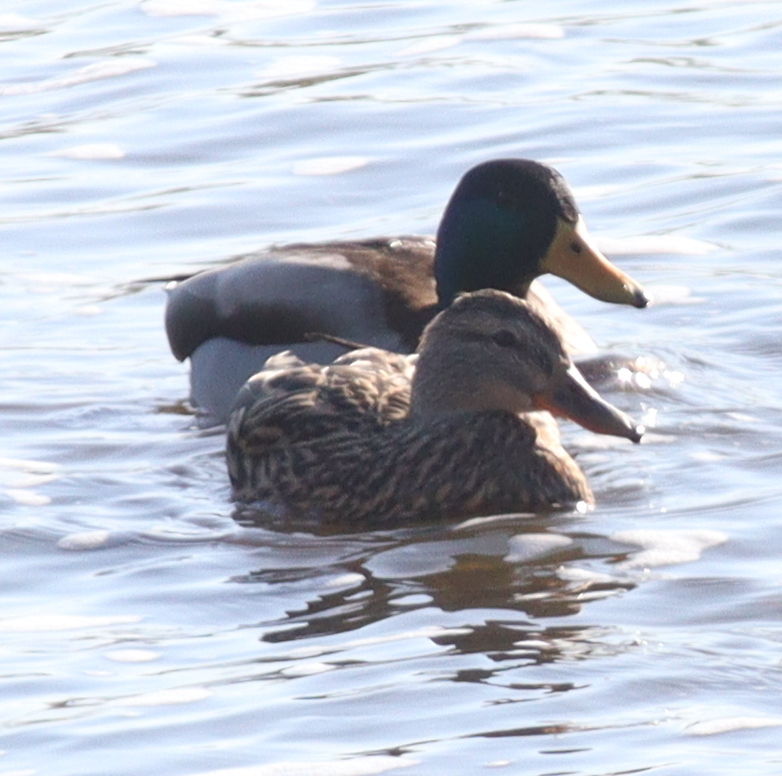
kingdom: Animalia
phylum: Chordata
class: Aves
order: Anseriformes
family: Anatidae
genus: Anas
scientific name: Anas platyrhynchos
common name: Mallard
